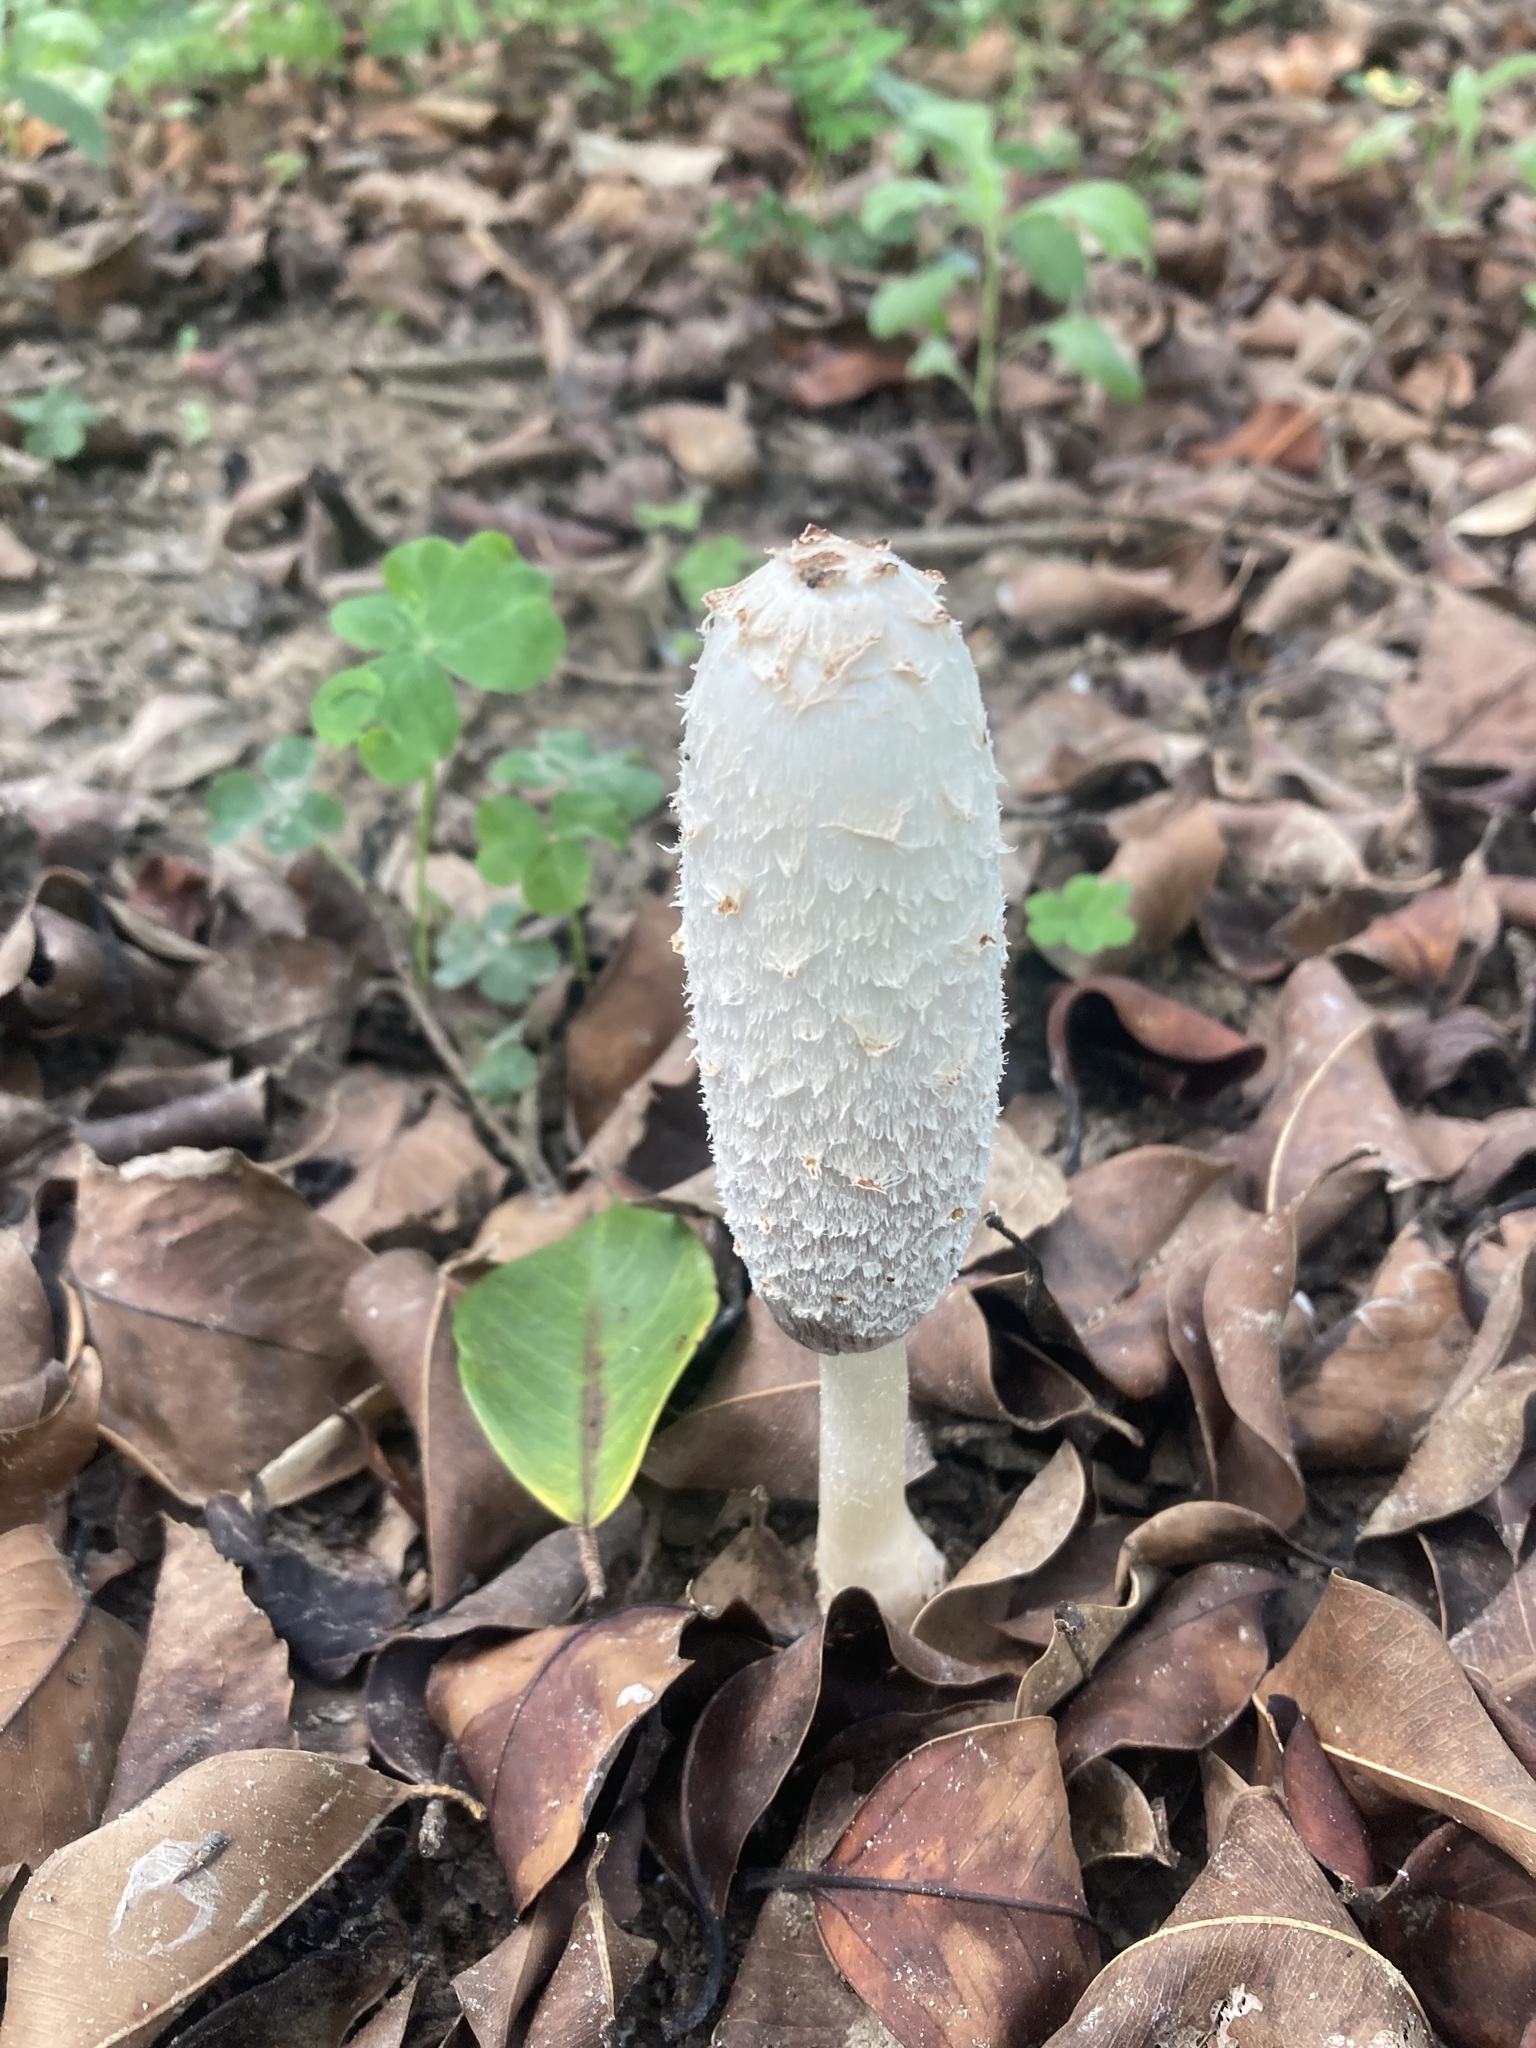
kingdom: Fungi
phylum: Basidiomycota
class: Agaricomycetes
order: Agaricales
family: Agaricaceae
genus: Coprinus
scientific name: Coprinus comatus
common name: Lawyer's wig
